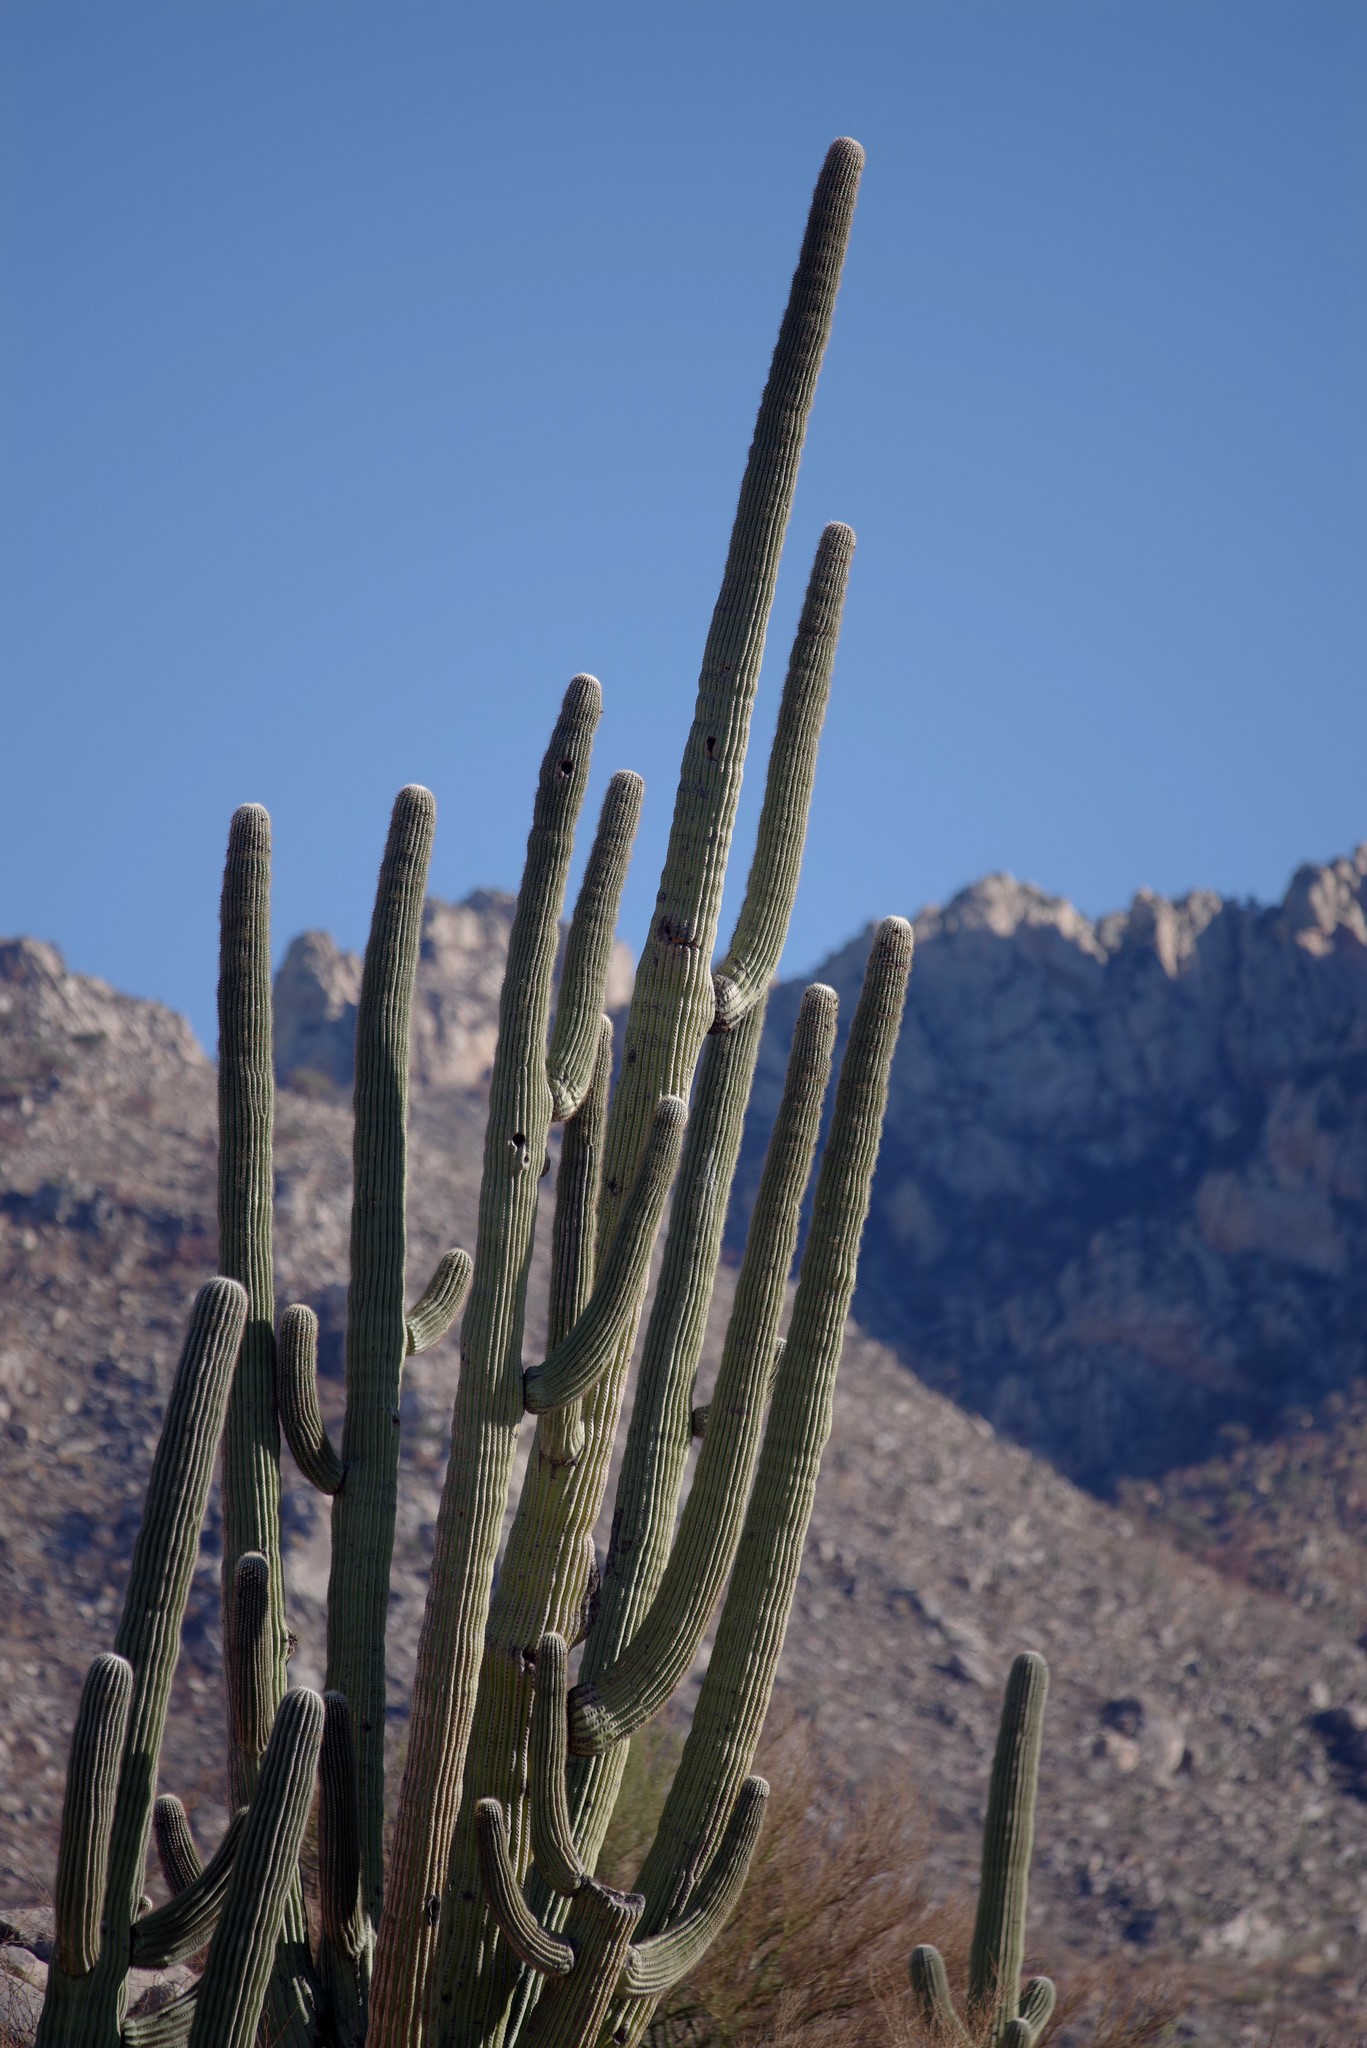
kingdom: Plantae
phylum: Tracheophyta
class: Magnoliopsida
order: Caryophyllales
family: Cactaceae
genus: Carnegiea
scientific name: Carnegiea gigantea
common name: Saguaro
